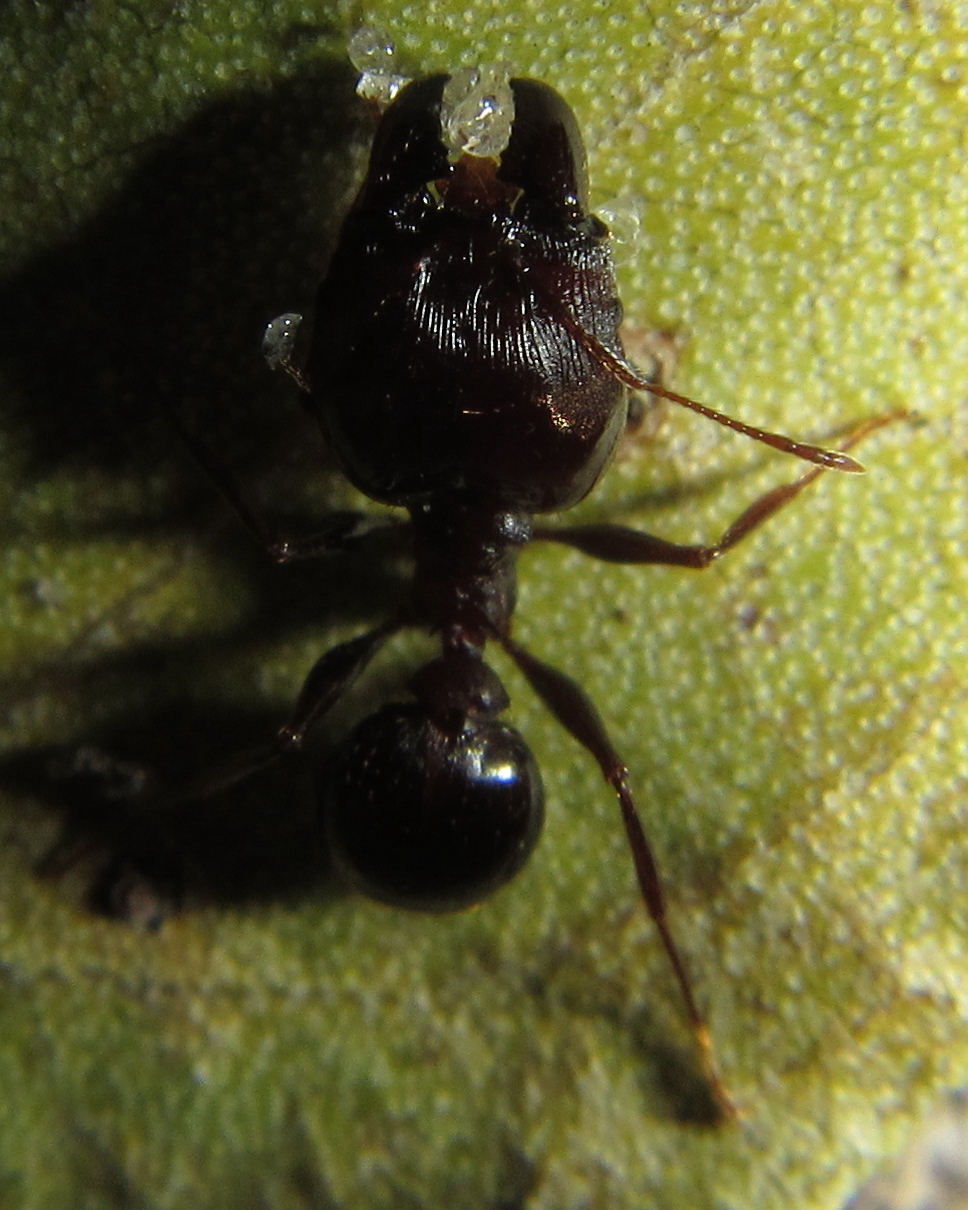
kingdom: Animalia
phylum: Arthropoda
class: Insecta
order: Hymenoptera
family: Formicidae
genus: Pheidole
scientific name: Pheidole crassinoda
